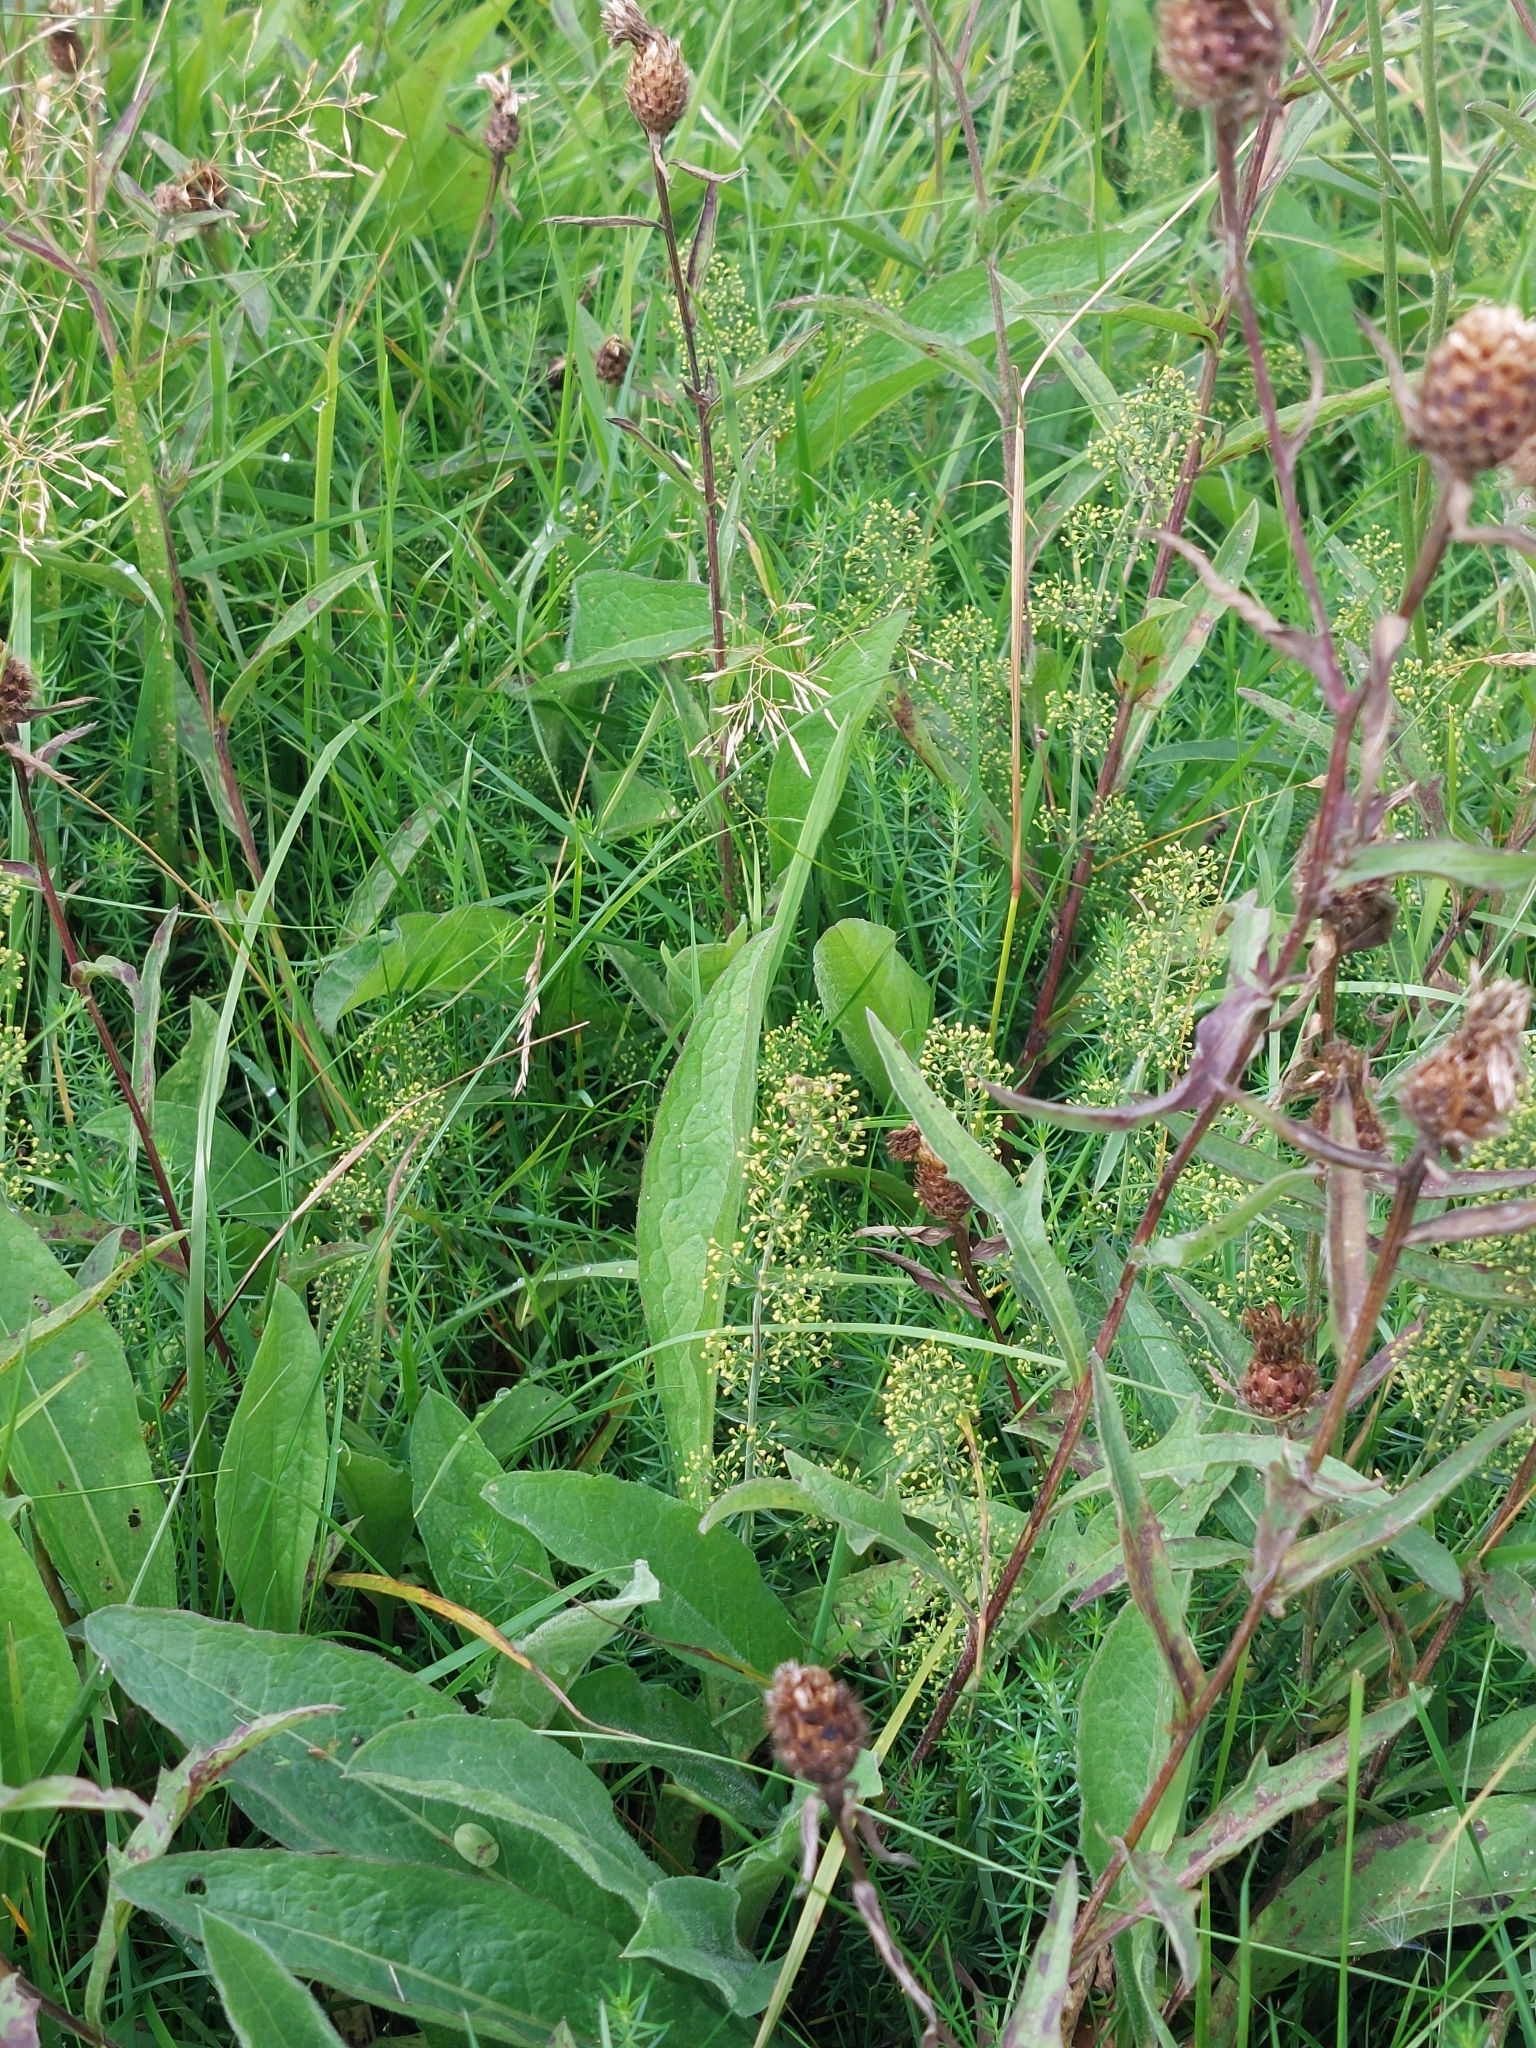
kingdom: Plantae
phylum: Tracheophyta
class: Magnoliopsida
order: Gentianales
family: Rubiaceae
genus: Galium
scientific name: Galium verum
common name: Lady's bedstraw
